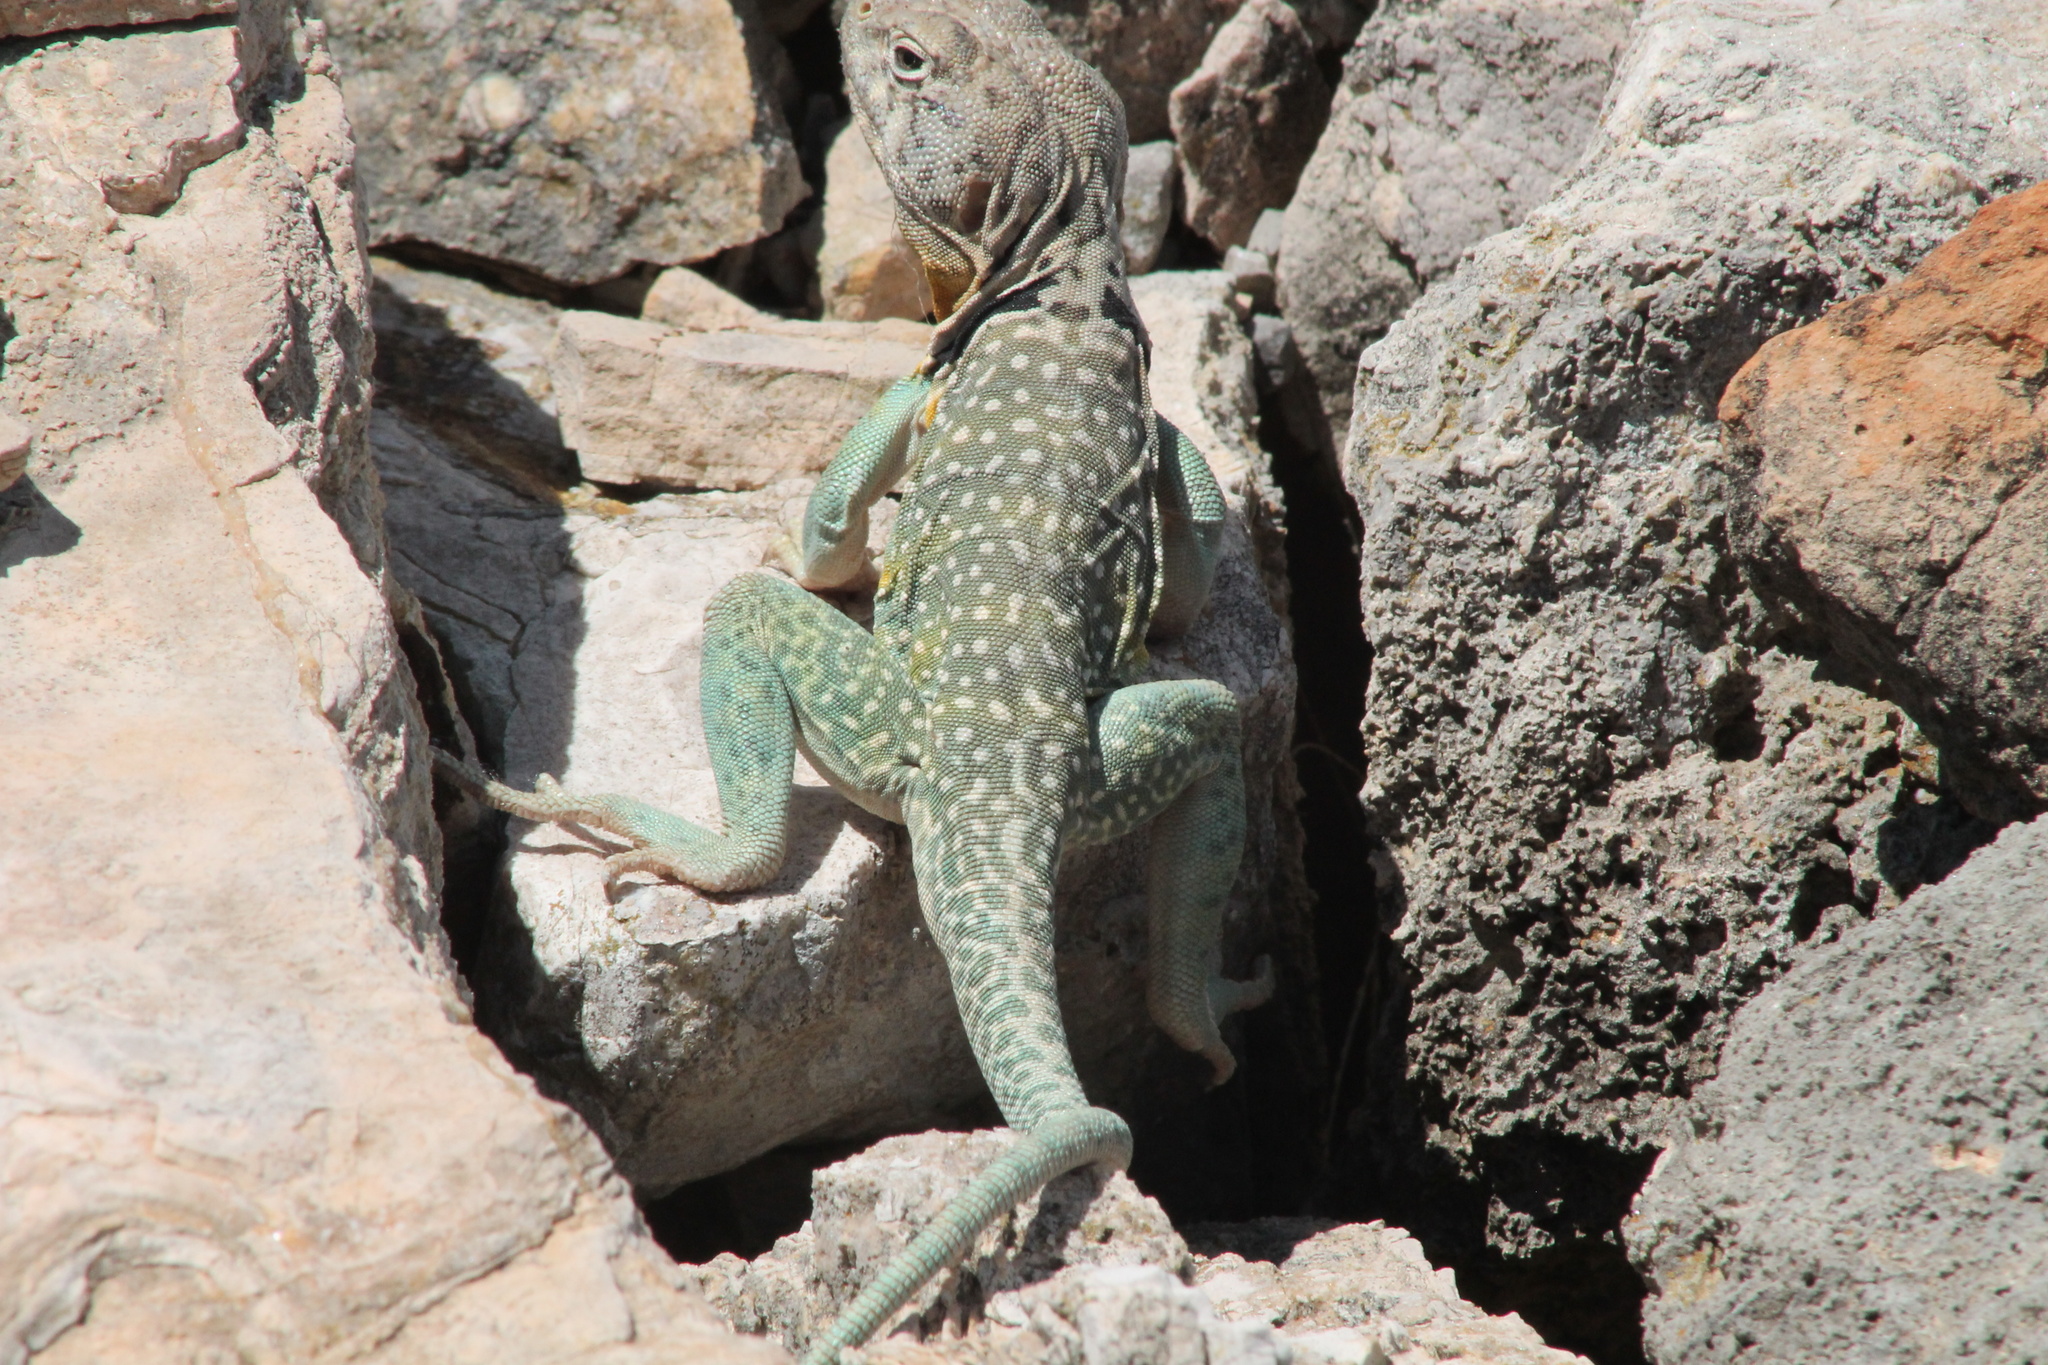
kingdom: Animalia
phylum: Chordata
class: Squamata
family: Crotaphytidae
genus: Crotaphytus
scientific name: Crotaphytus collaris
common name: Collared lizard
